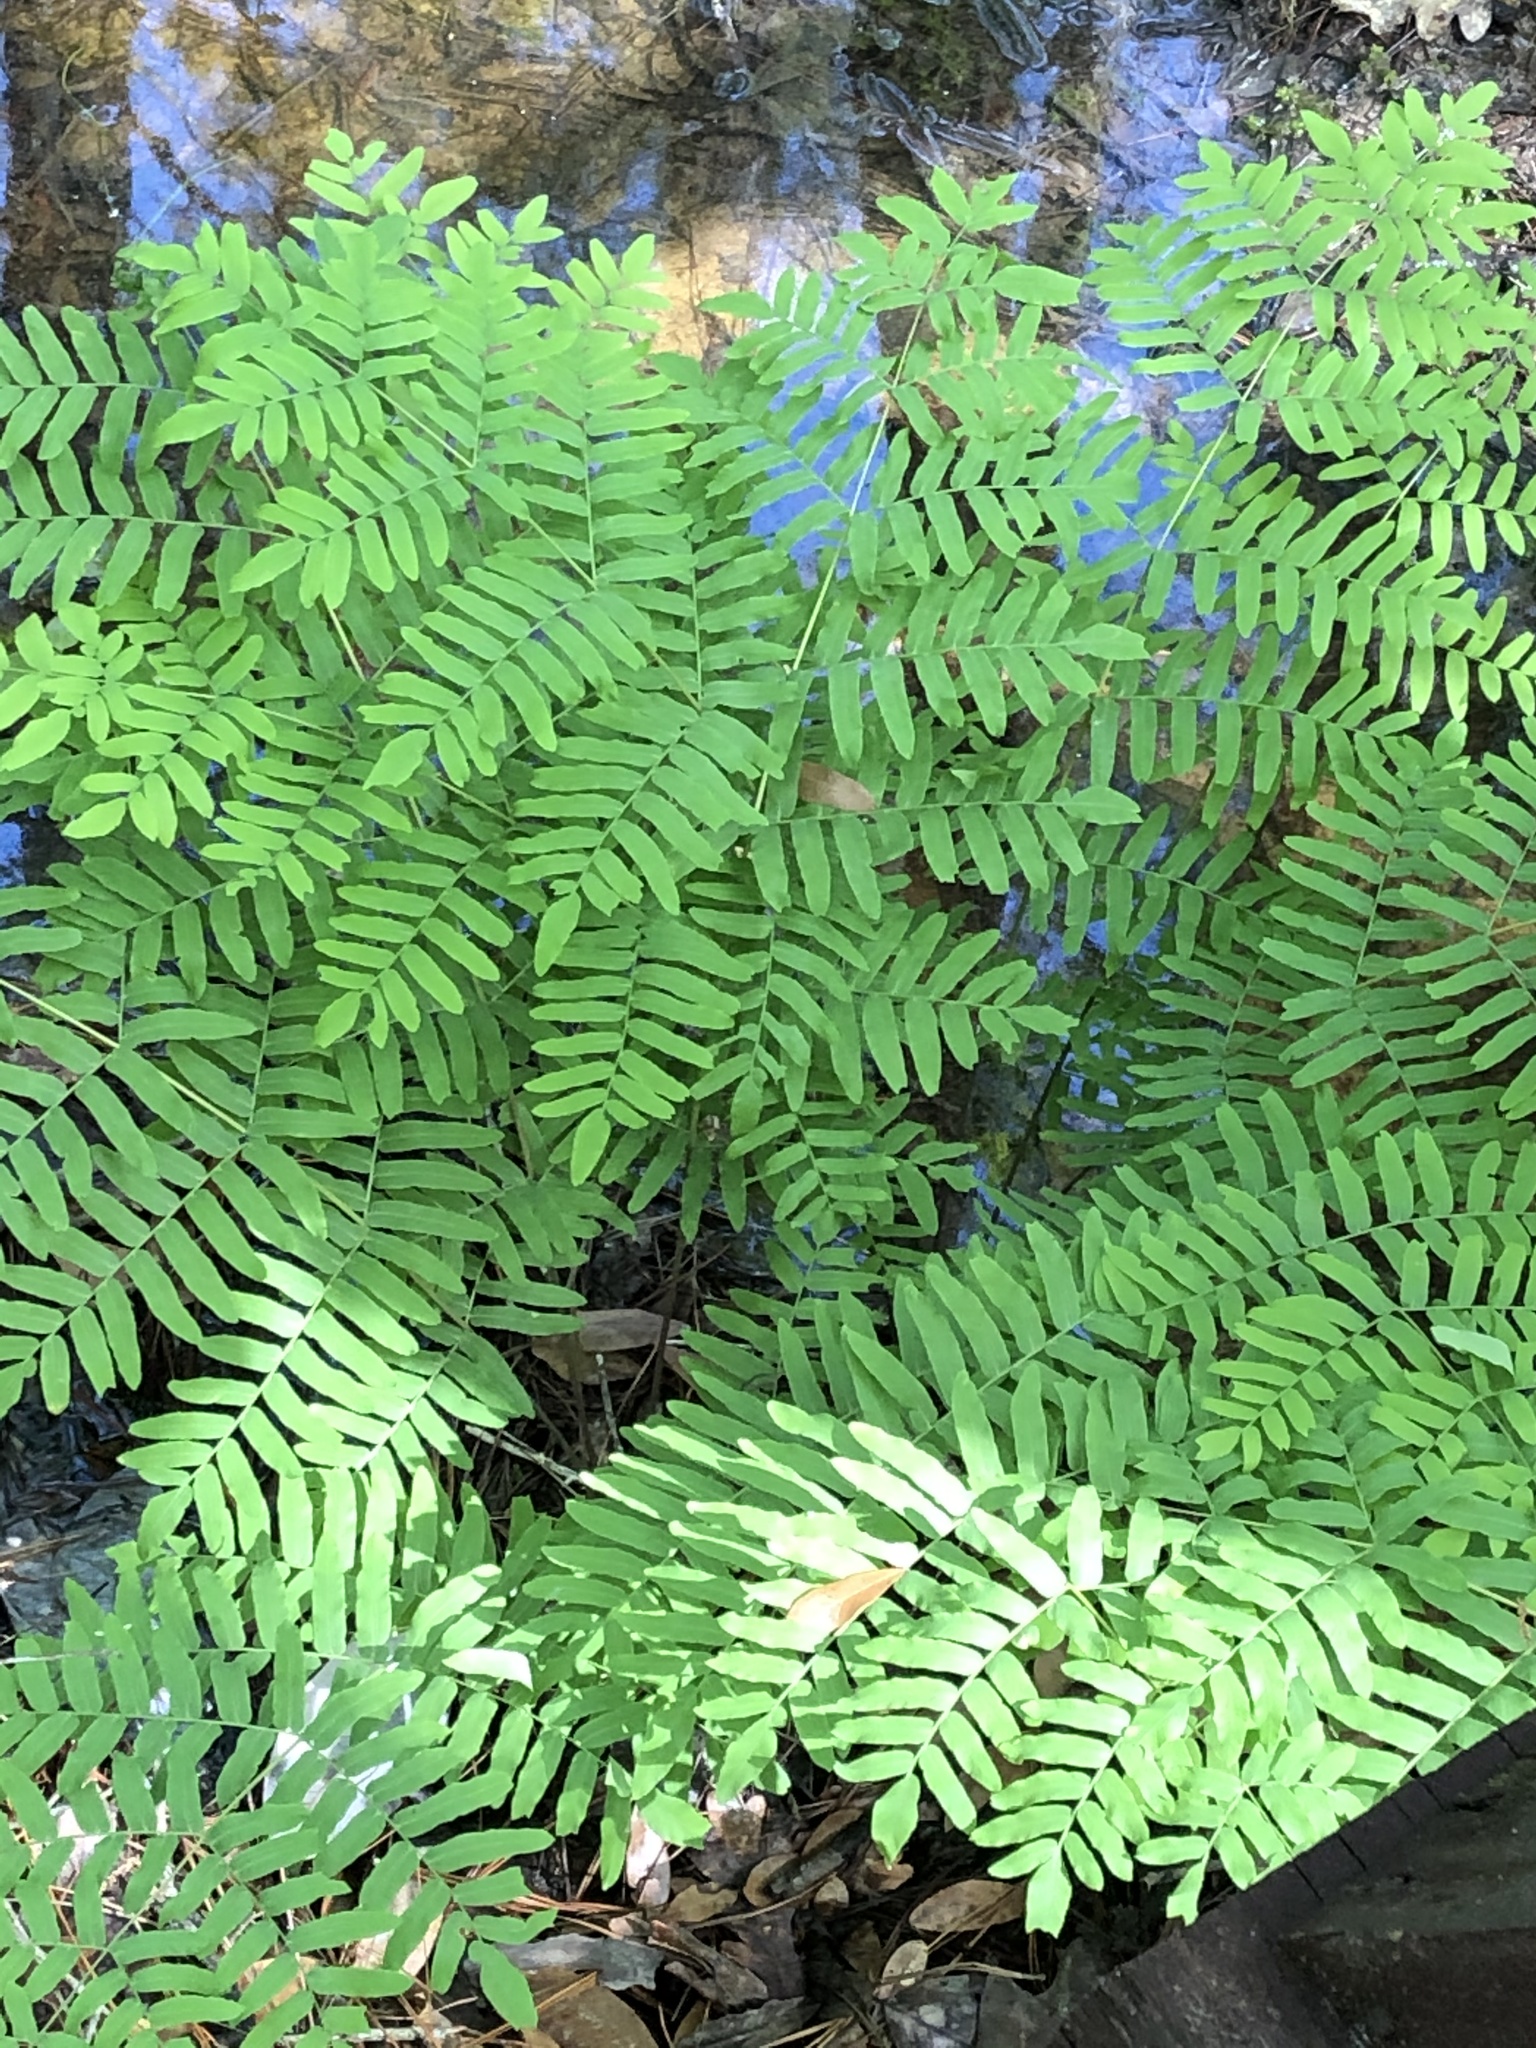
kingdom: Plantae
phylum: Tracheophyta
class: Polypodiopsida
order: Osmundales
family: Osmundaceae
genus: Osmunda
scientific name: Osmunda spectabilis
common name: American royal fern
